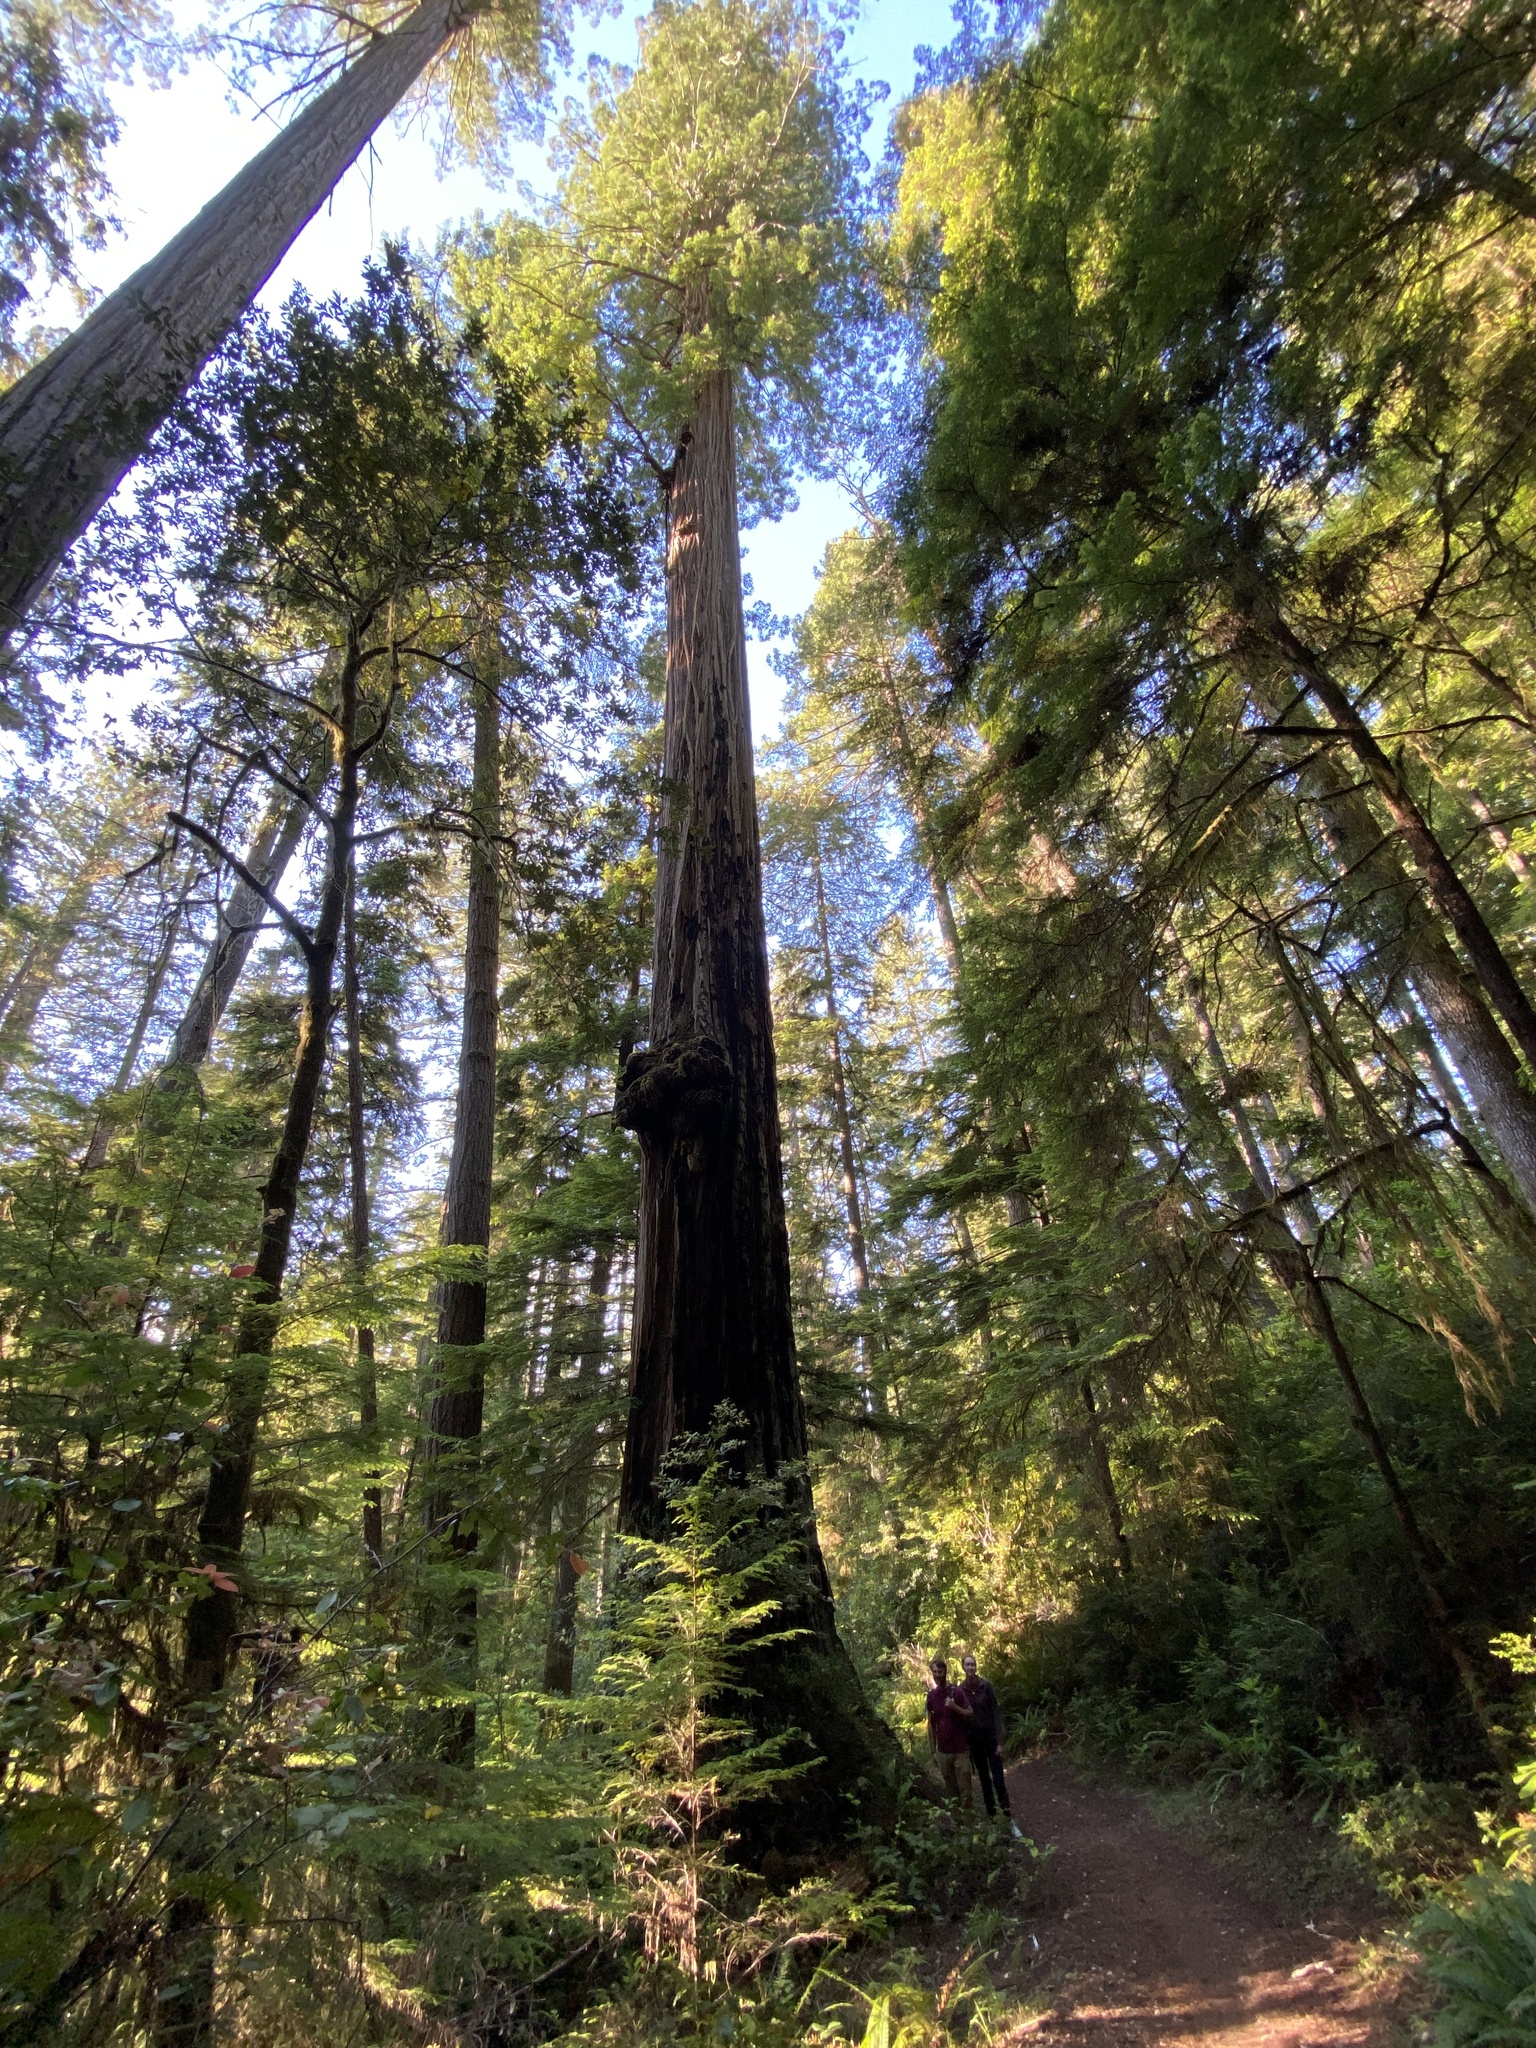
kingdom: Plantae
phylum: Tracheophyta
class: Pinopsida
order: Pinales
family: Cupressaceae
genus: Sequoia
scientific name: Sequoia sempervirens
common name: Coast redwood
